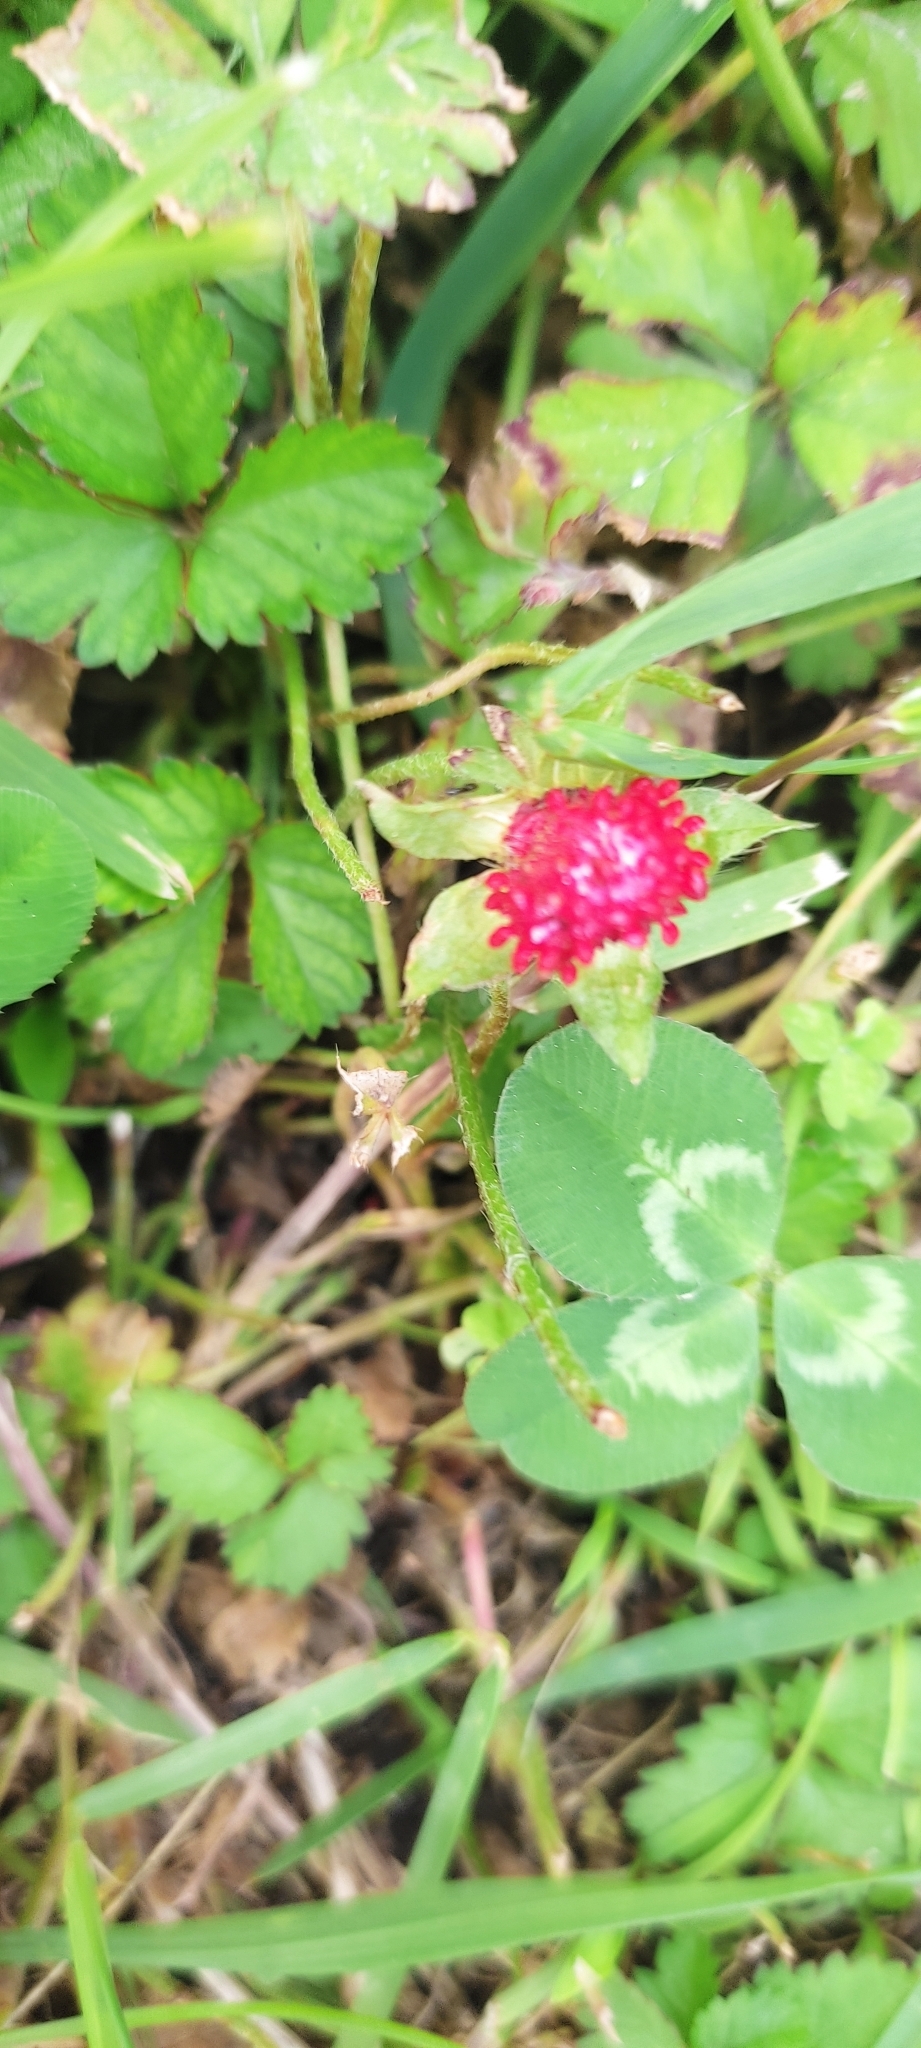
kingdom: Plantae
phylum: Tracheophyta
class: Magnoliopsida
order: Fabales
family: Fabaceae
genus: Trifolium
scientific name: Trifolium incarnatum
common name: Crimson clover
